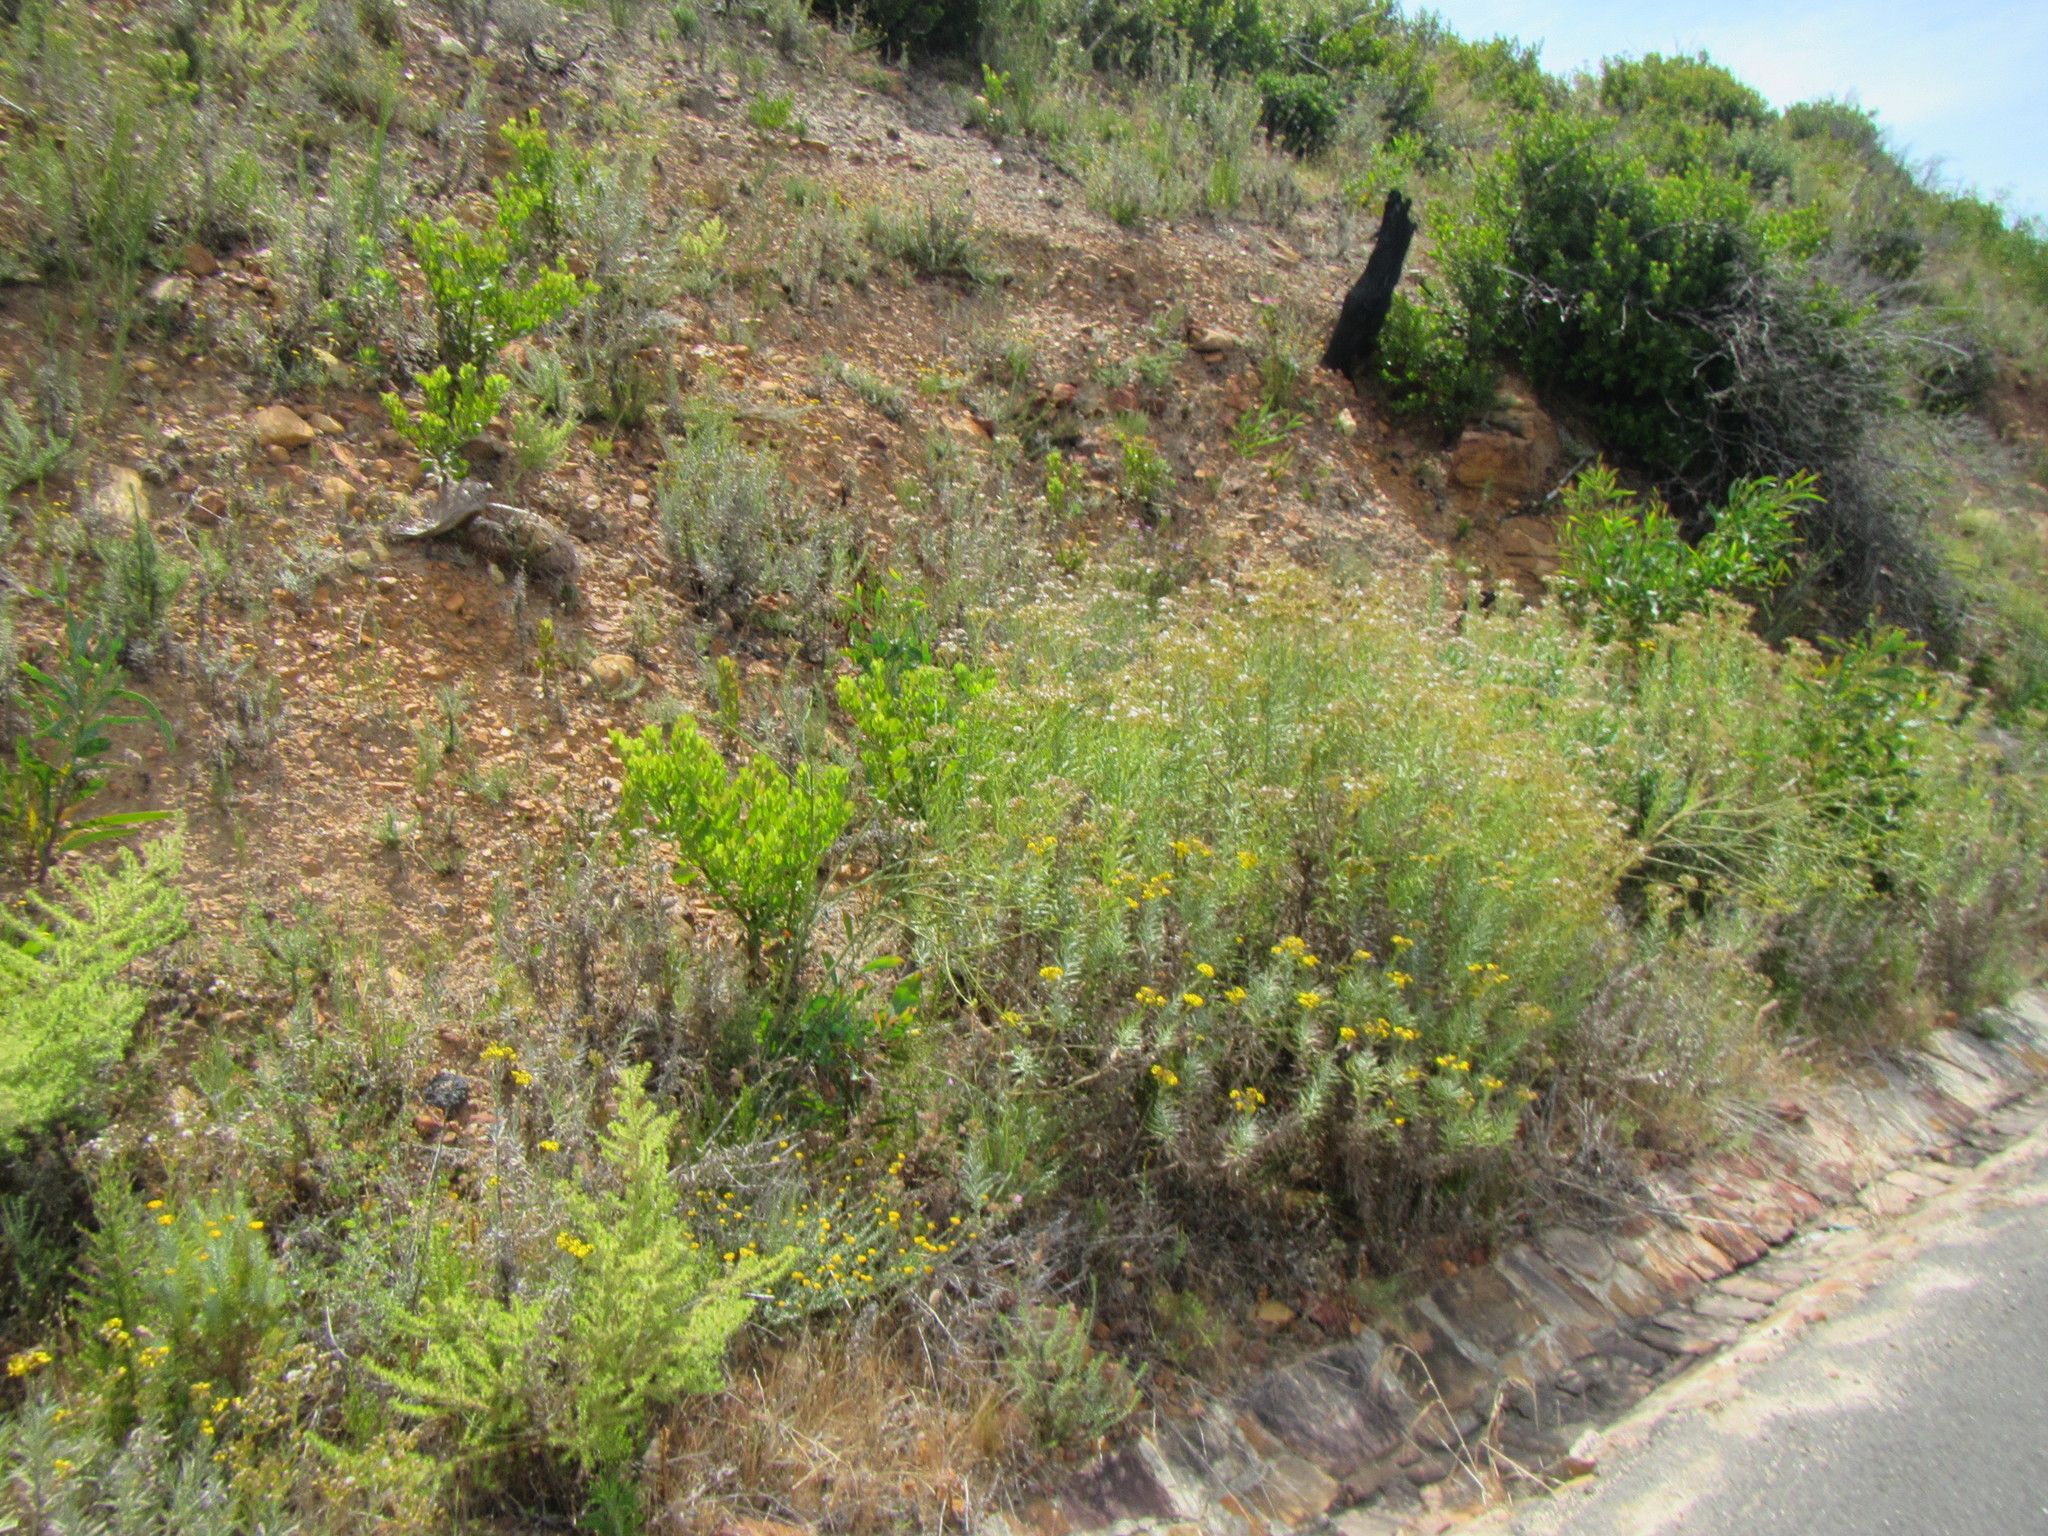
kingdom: Plantae
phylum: Tracheophyta
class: Magnoliopsida
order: Asterales
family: Asteraceae
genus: Senecio
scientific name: Senecio pterophorus
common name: Shoddy ragwort
